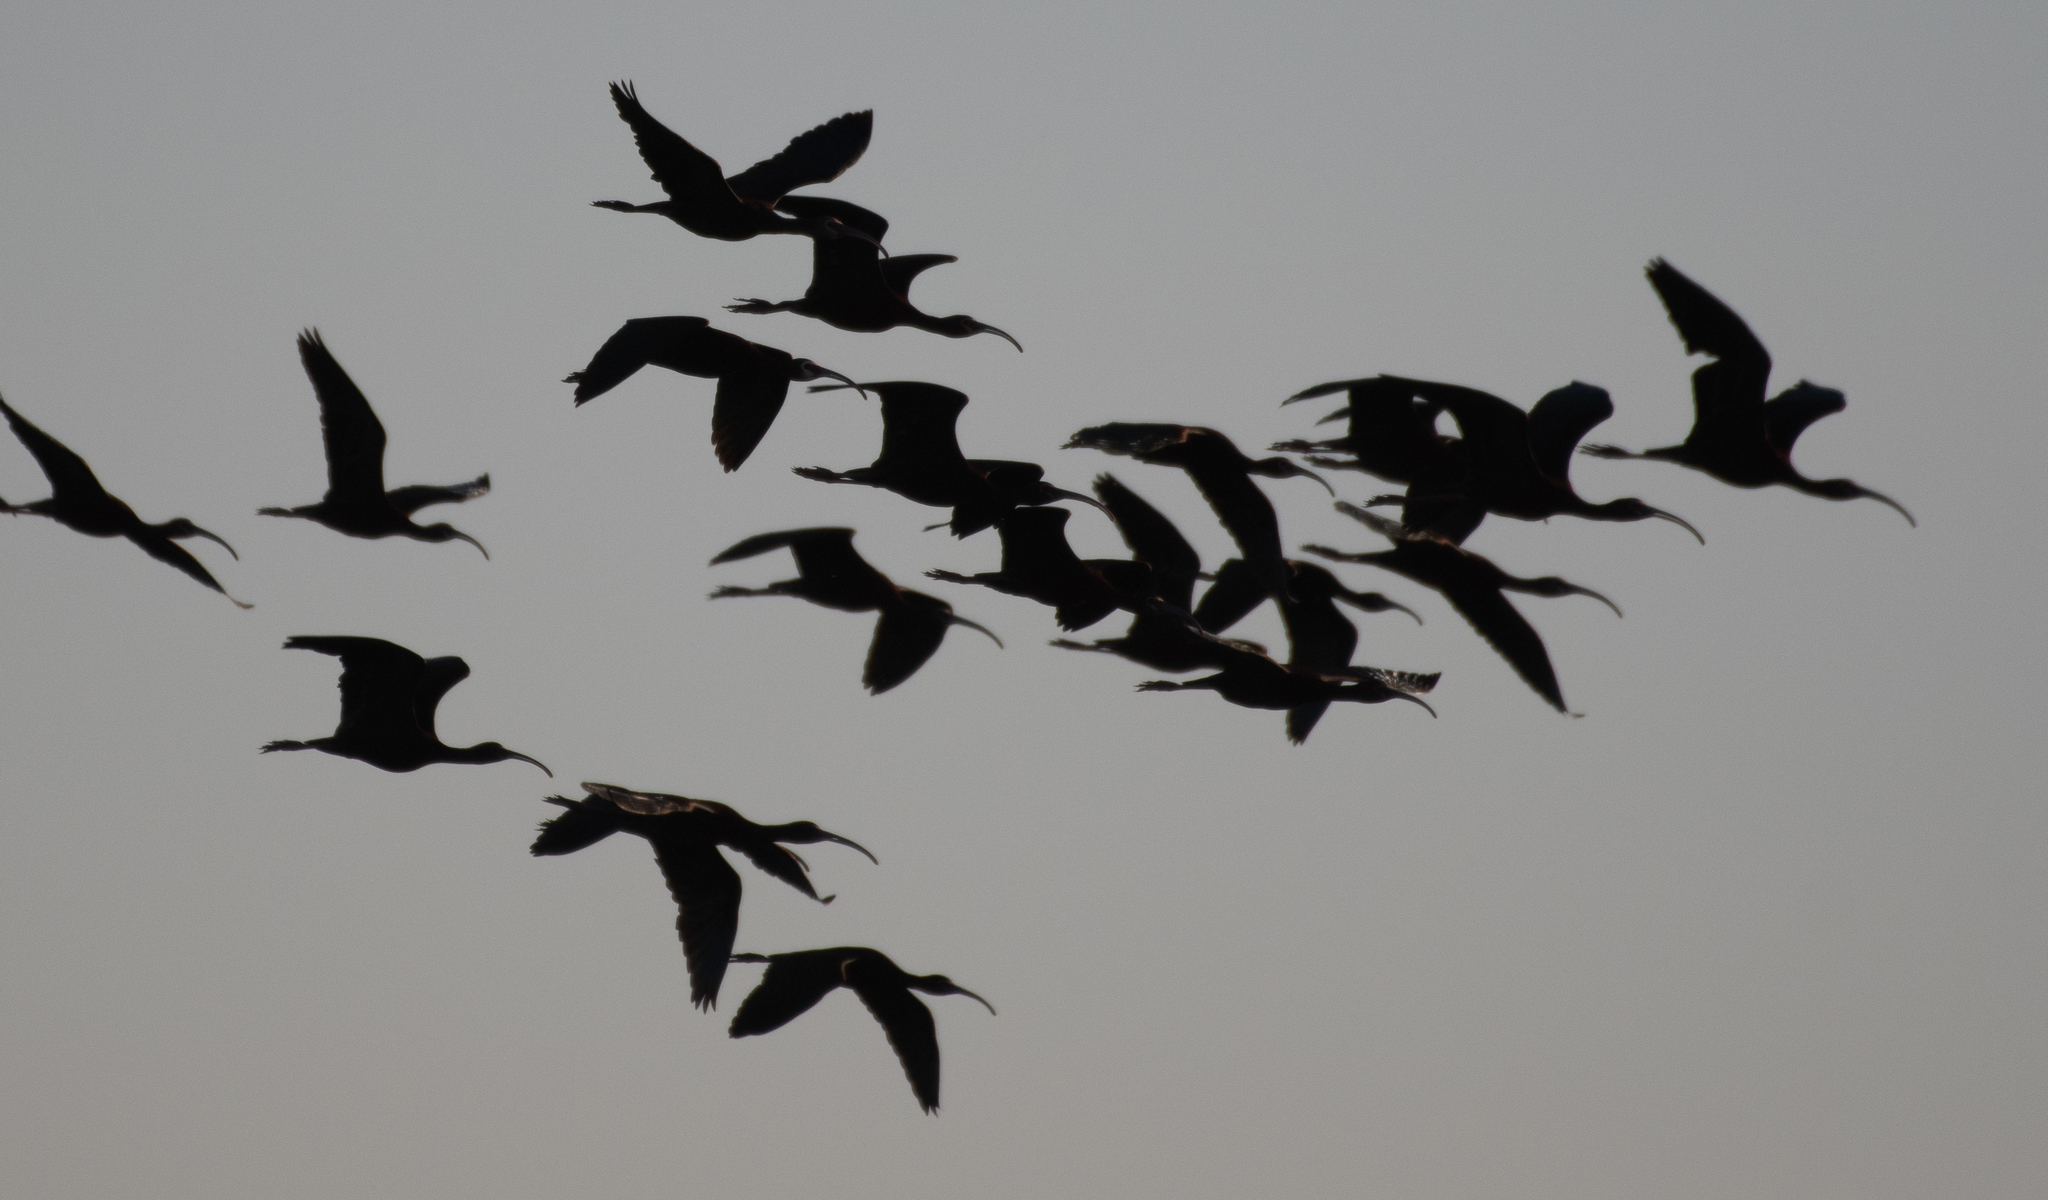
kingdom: Animalia
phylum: Chordata
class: Aves
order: Pelecaniformes
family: Threskiornithidae
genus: Plegadis
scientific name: Plegadis chihi
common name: White-faced ibis
